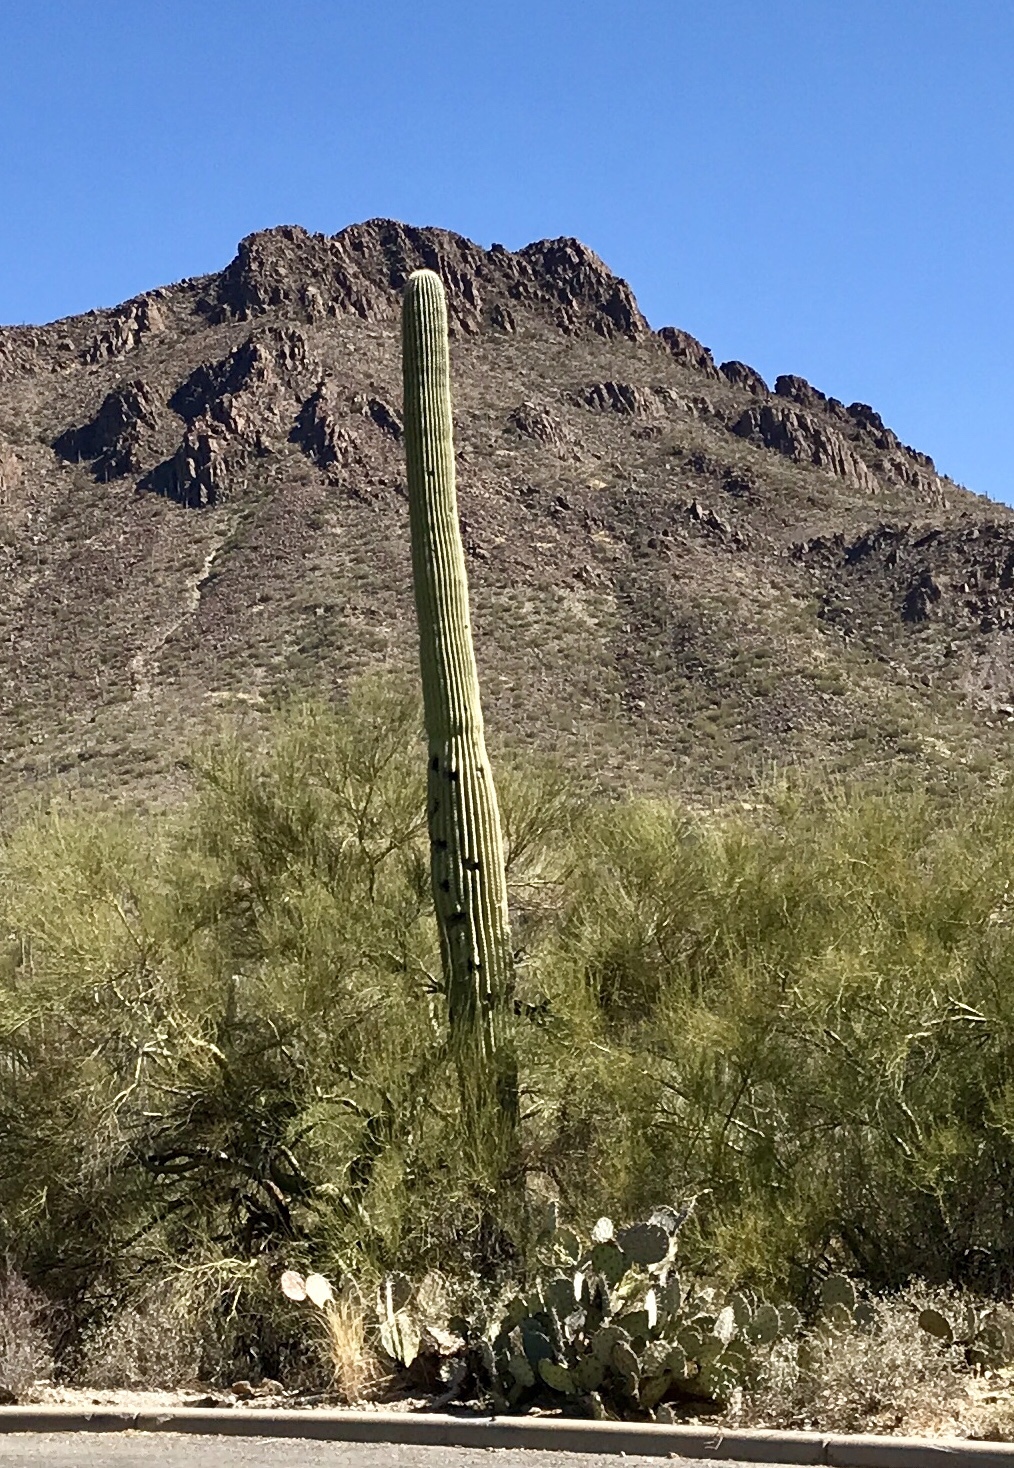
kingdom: Plantae
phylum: Tracheophyta
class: Magnoliopsida
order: Caryophyllales
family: Cactaceae
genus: Carnegiea
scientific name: Carnegiea gigantea
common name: Saguaro
